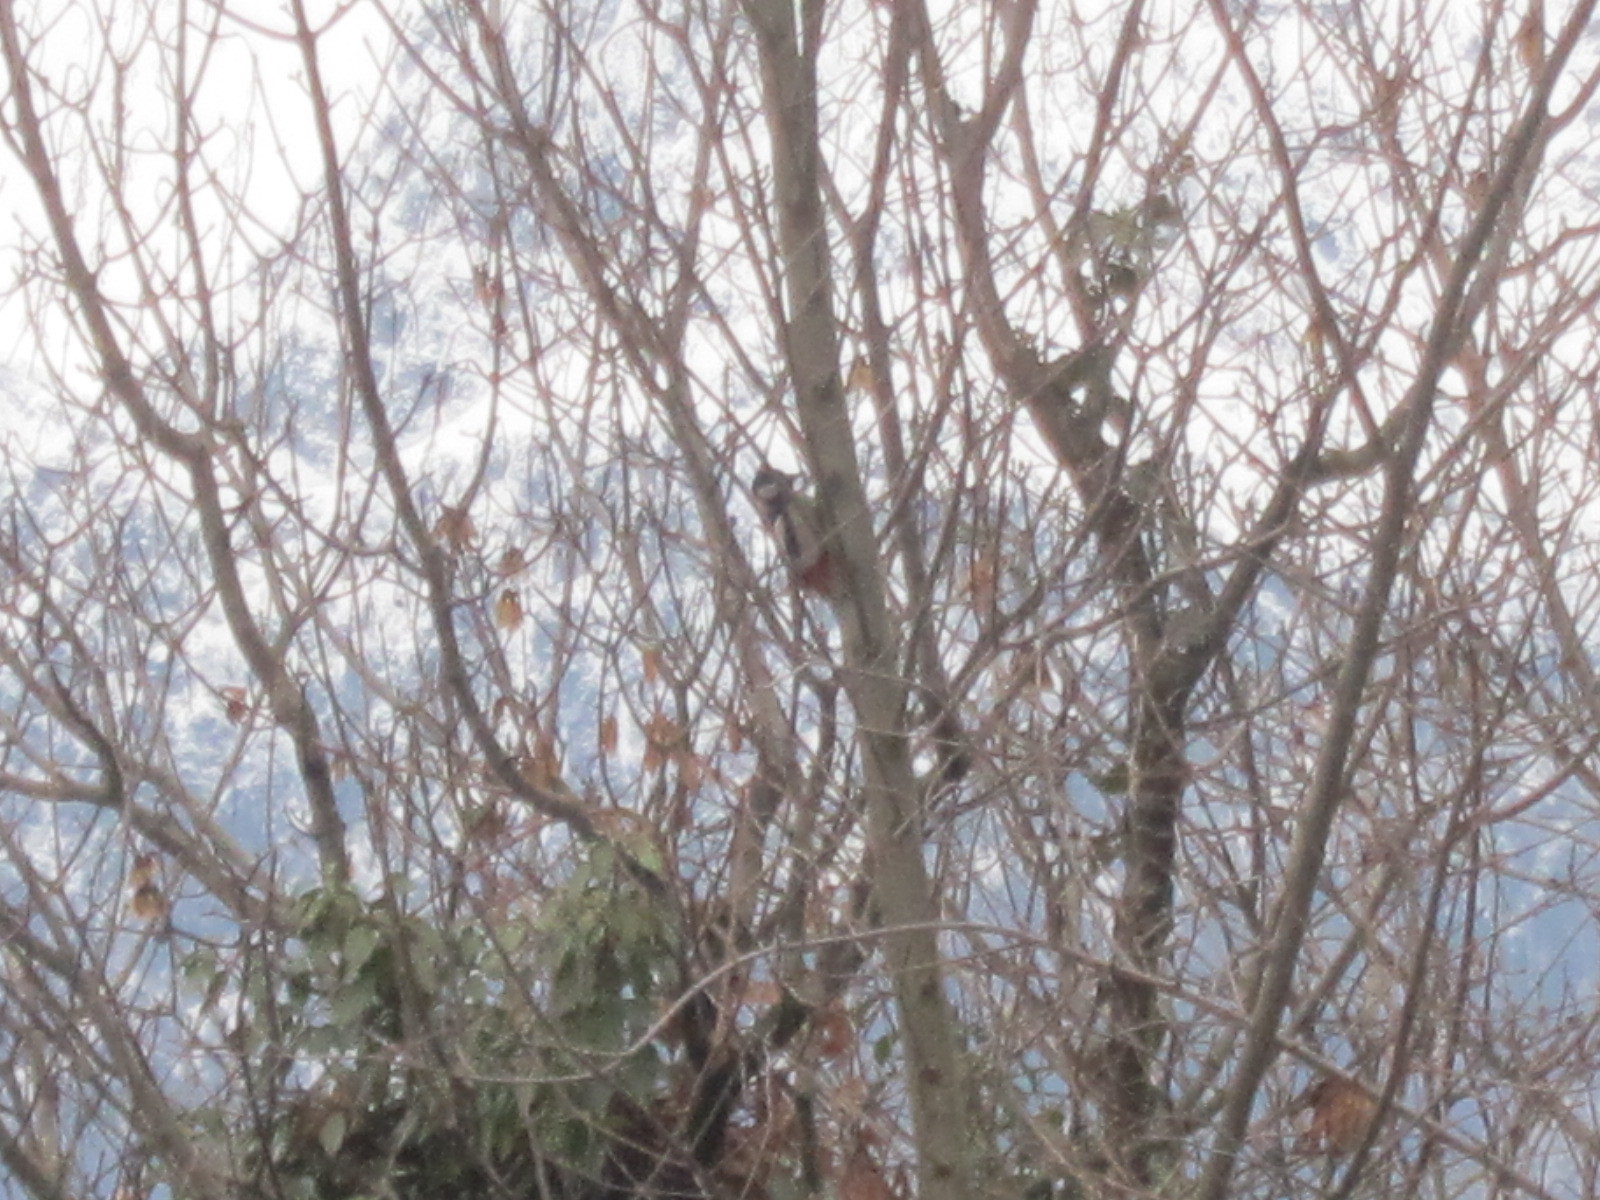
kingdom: Animalia
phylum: Chordata
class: Aves
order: Piciformes
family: Picidae
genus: Dendrocopos
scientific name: Dendrocopos major
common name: Great spotted woodpecker
